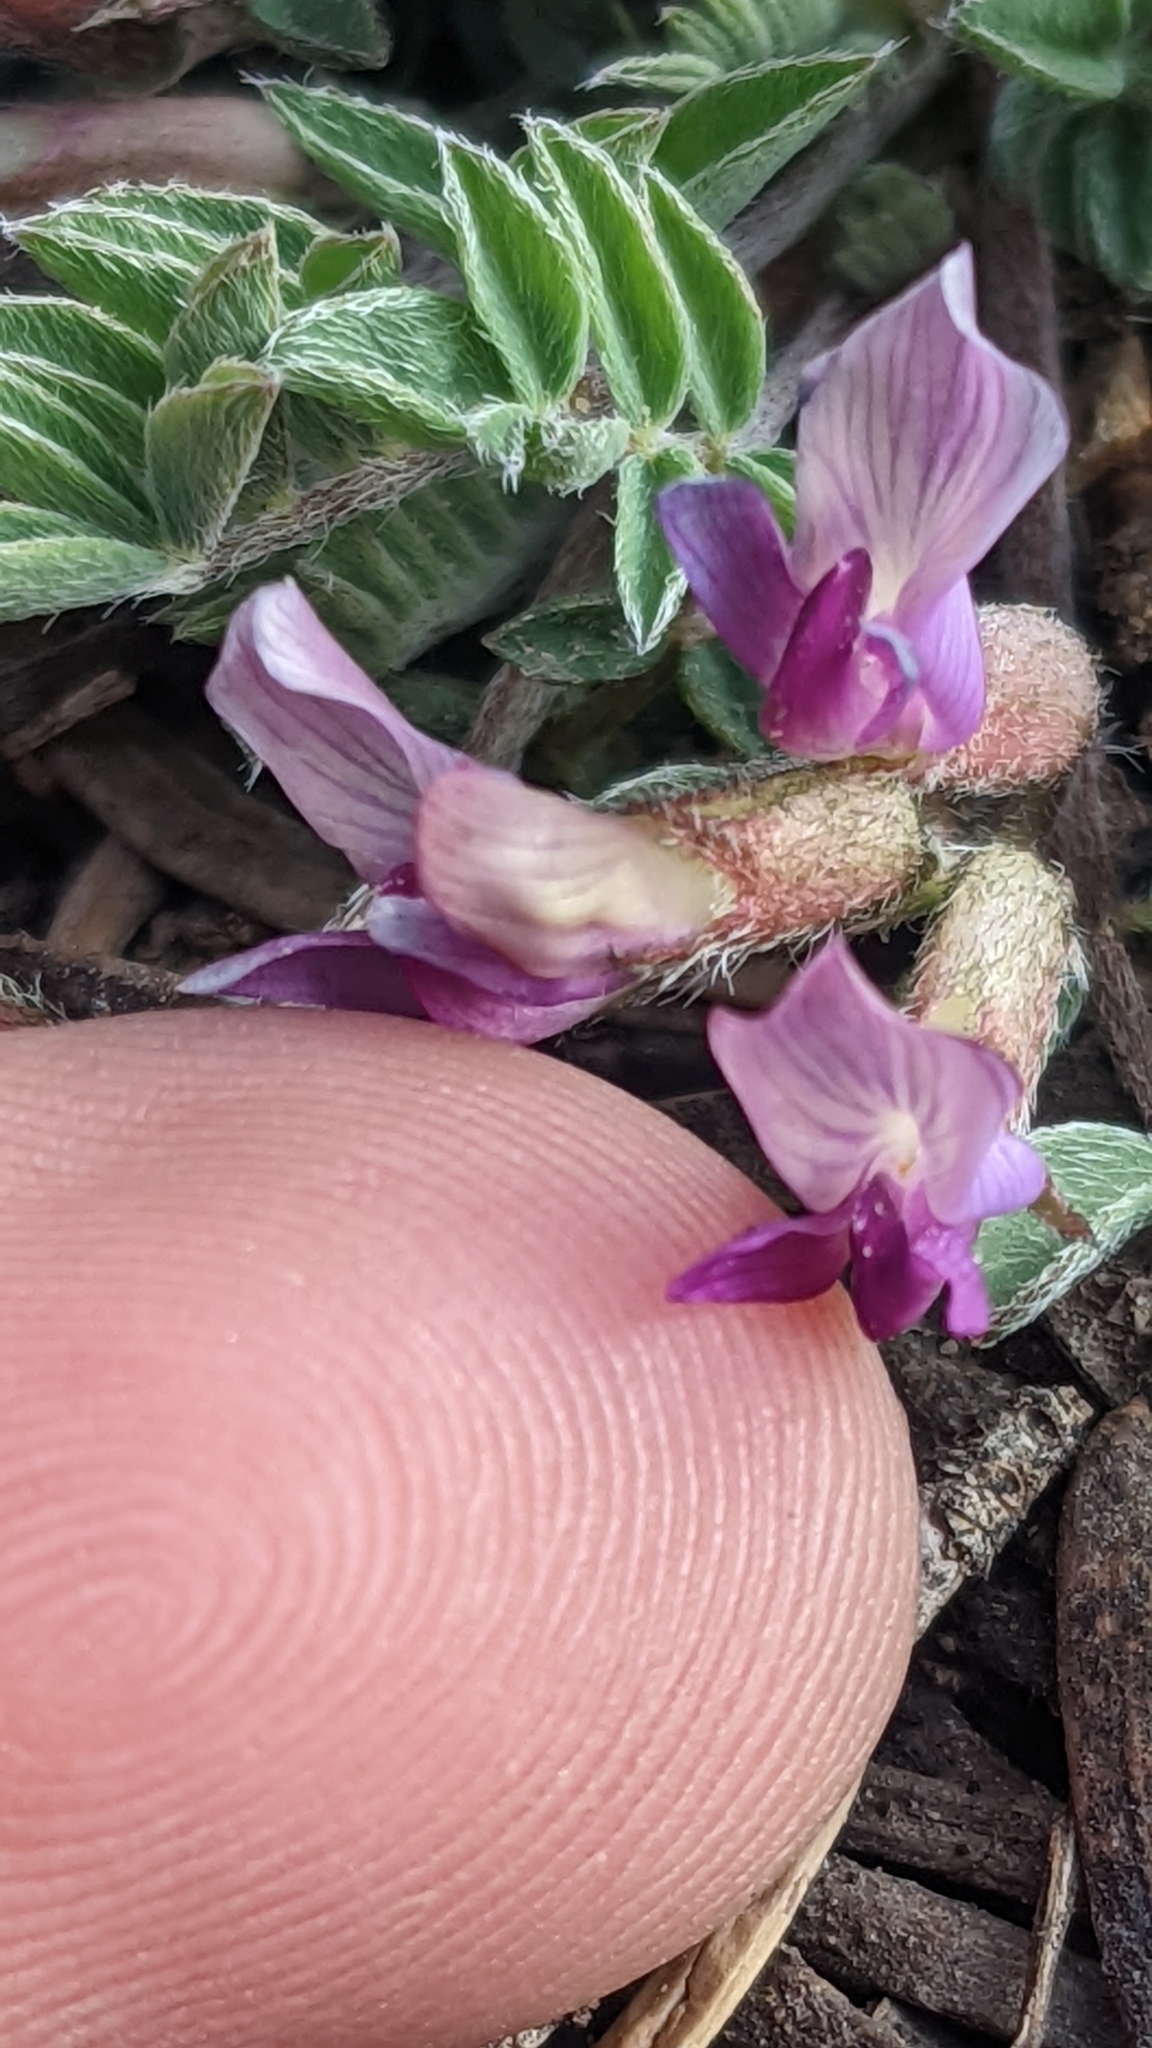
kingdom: Plantae
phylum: Tracheophyta
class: Magnoliopsida
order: Fabales
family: Fabaceae
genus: Astragalus
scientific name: Astragalus concordius
